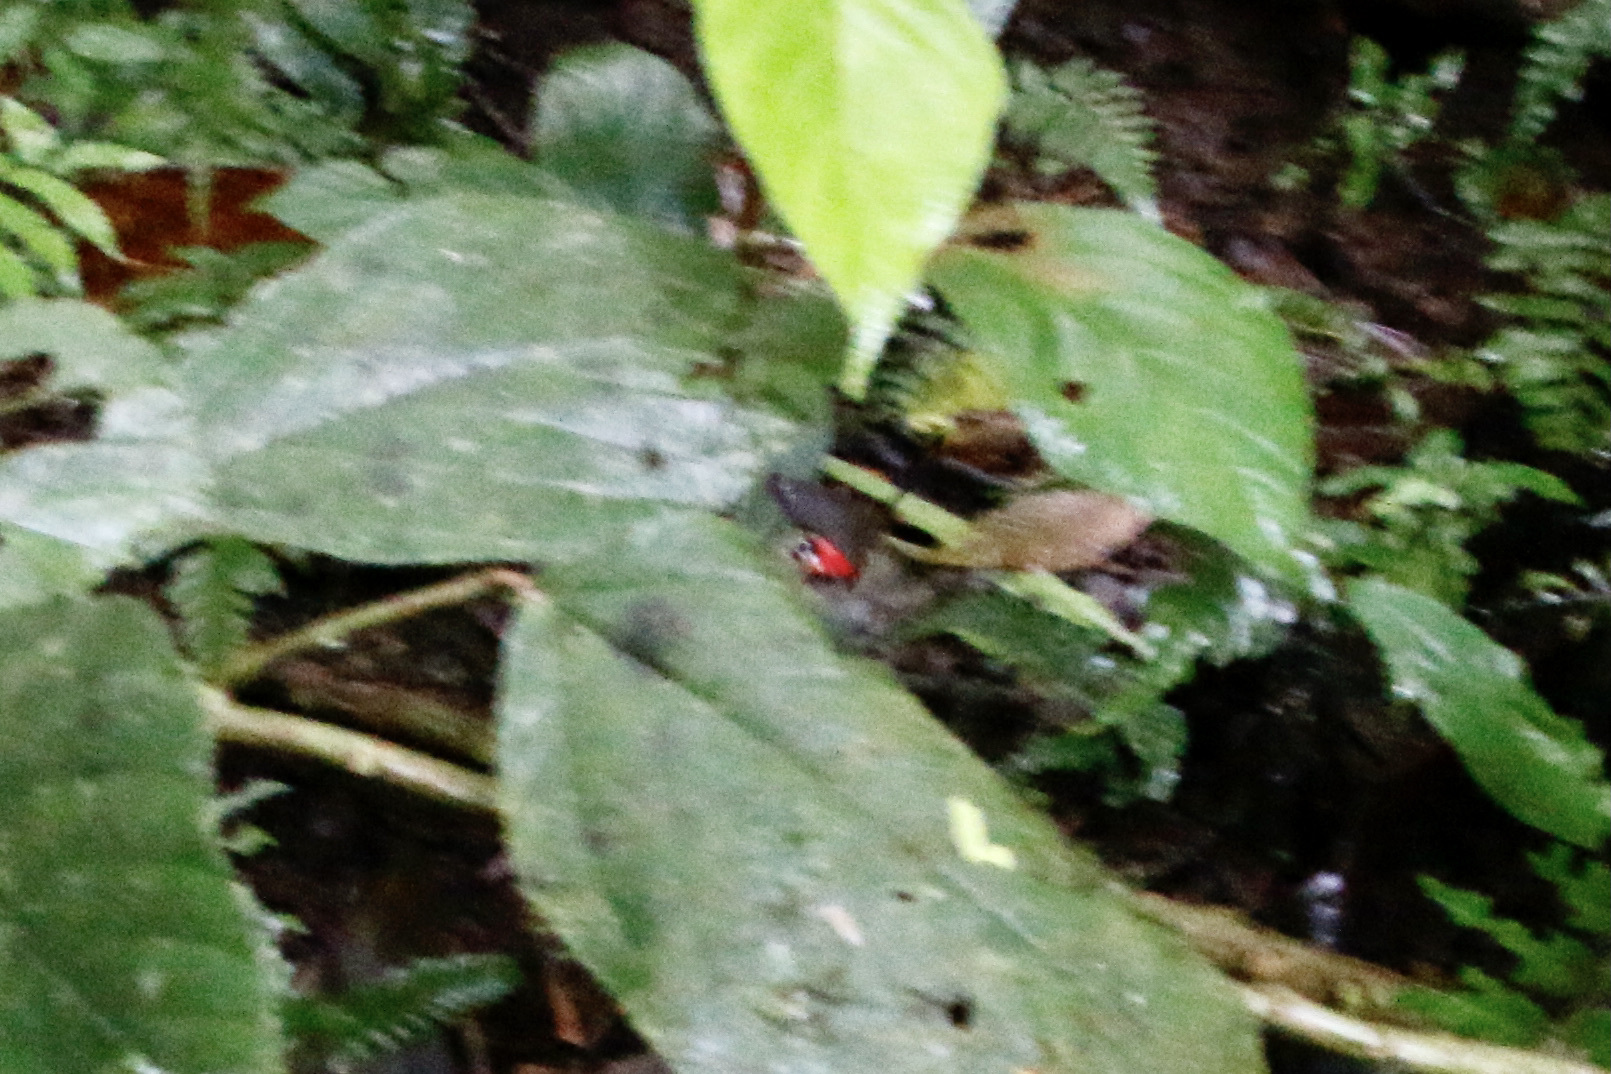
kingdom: Animalia
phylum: Arthropoda
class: Insecta
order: Lepidoptera
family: Nymphalidae
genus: Pierella
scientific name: Pierella helvina
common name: Red-washed satyr
